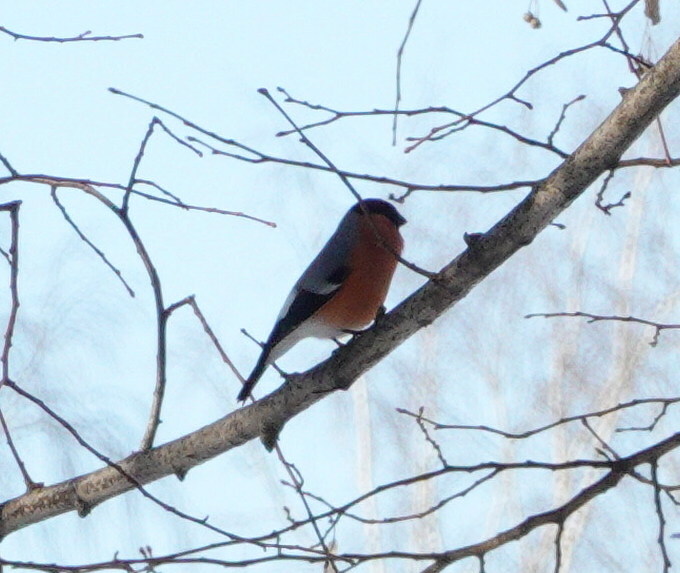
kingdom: Animalia
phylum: Chordata
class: Aves
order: Passeriformes
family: Fringillidae
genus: Pyrrhula
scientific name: Pyrrhula pyrrhula
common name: Eurasian bullfinch
